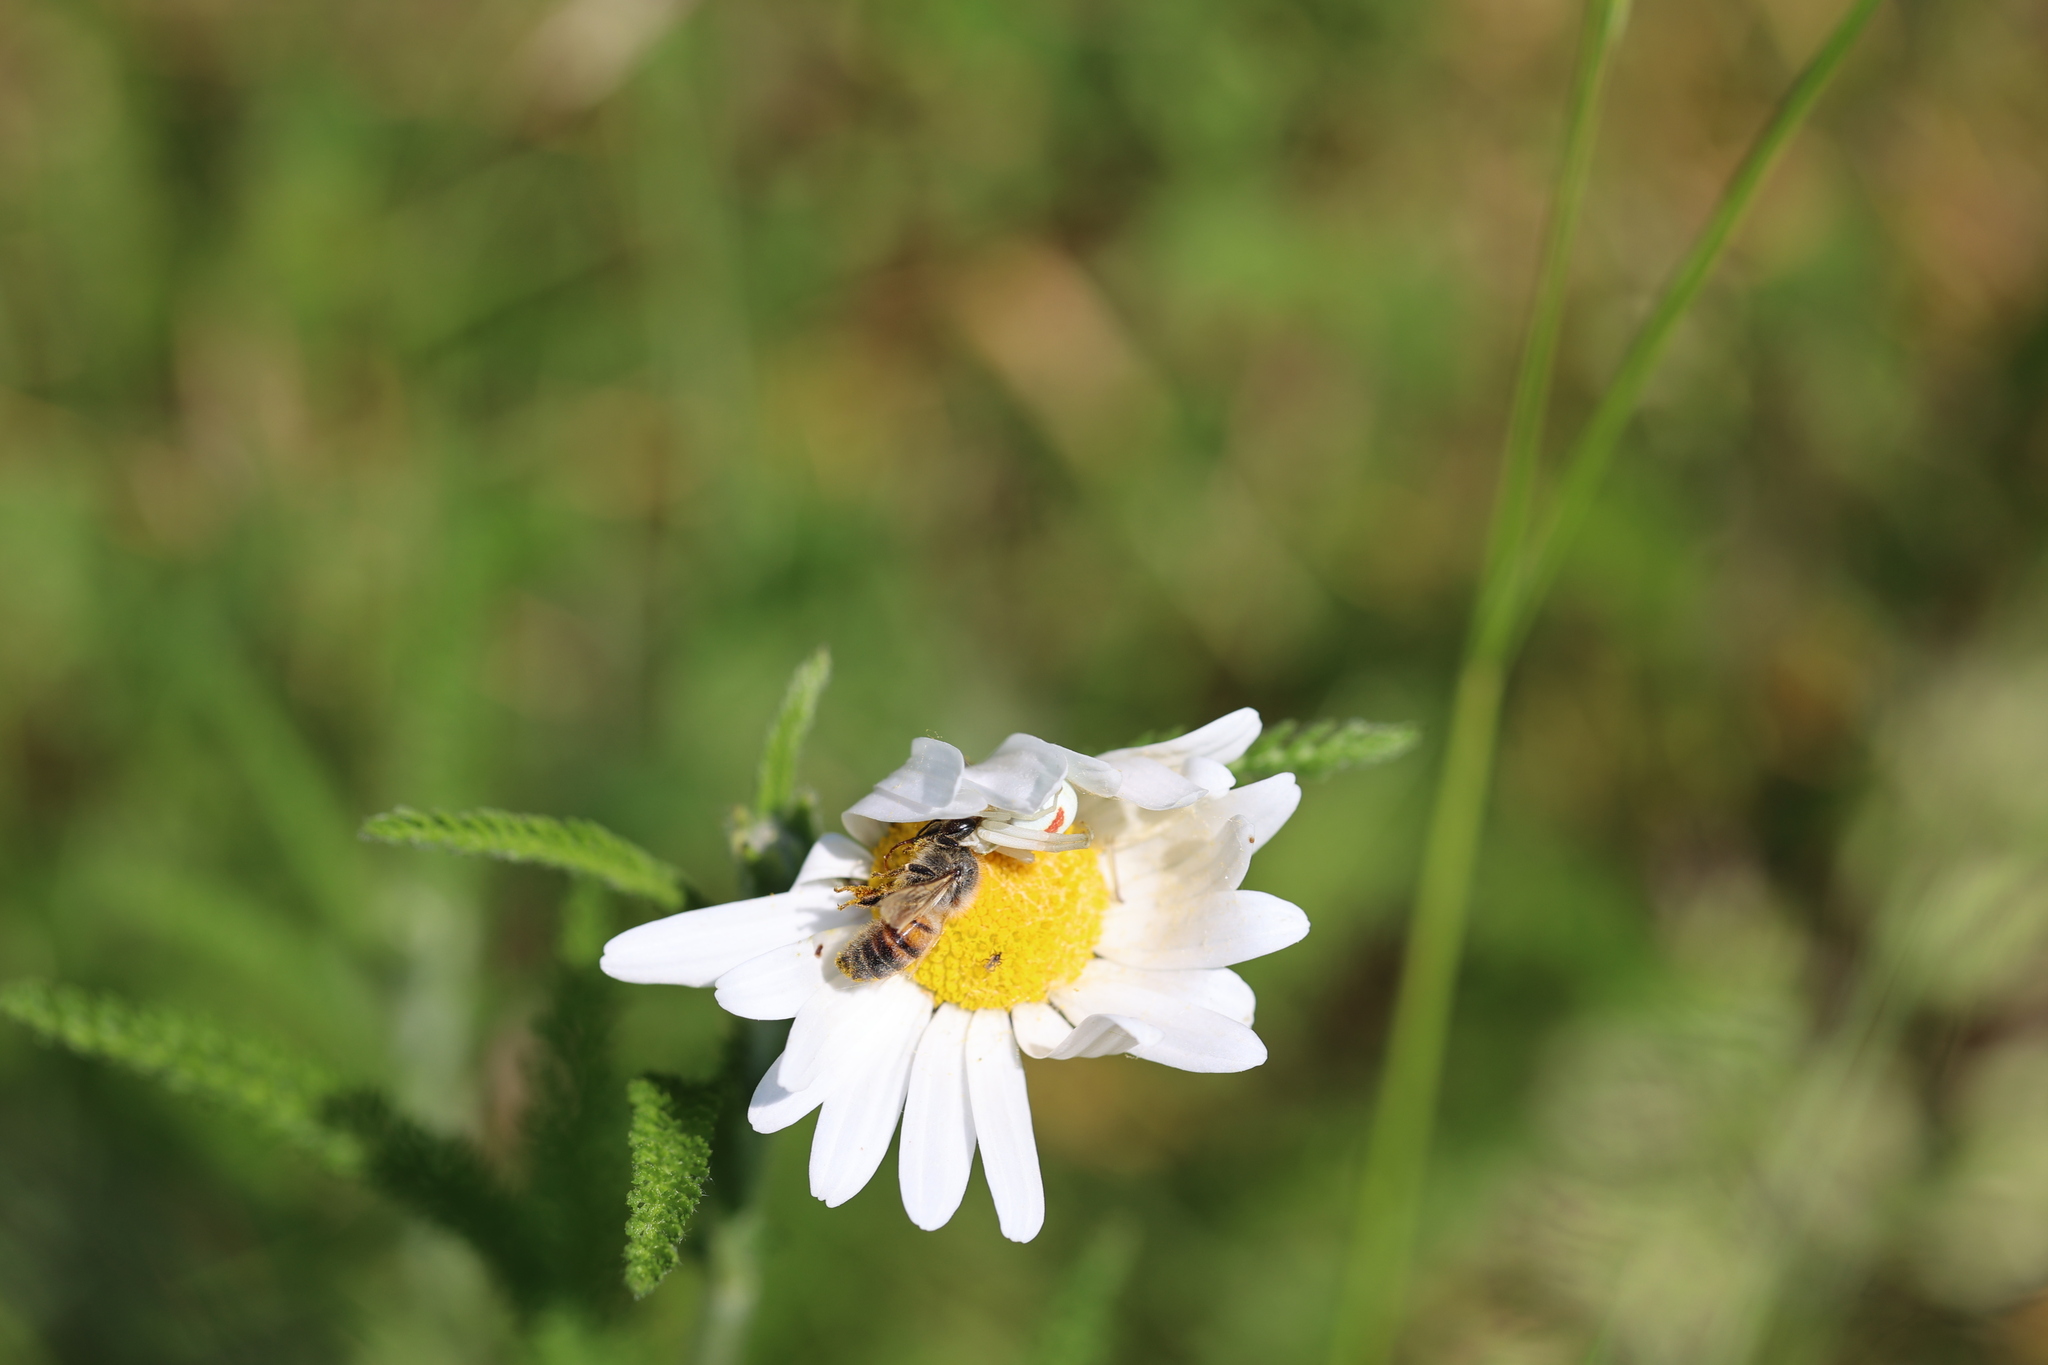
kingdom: Animalia
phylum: Arthropoda
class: Arachnida
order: Araneae
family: Thomisidae
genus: Misumena
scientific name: Misumena vatia
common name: Goldenrod crab spider
